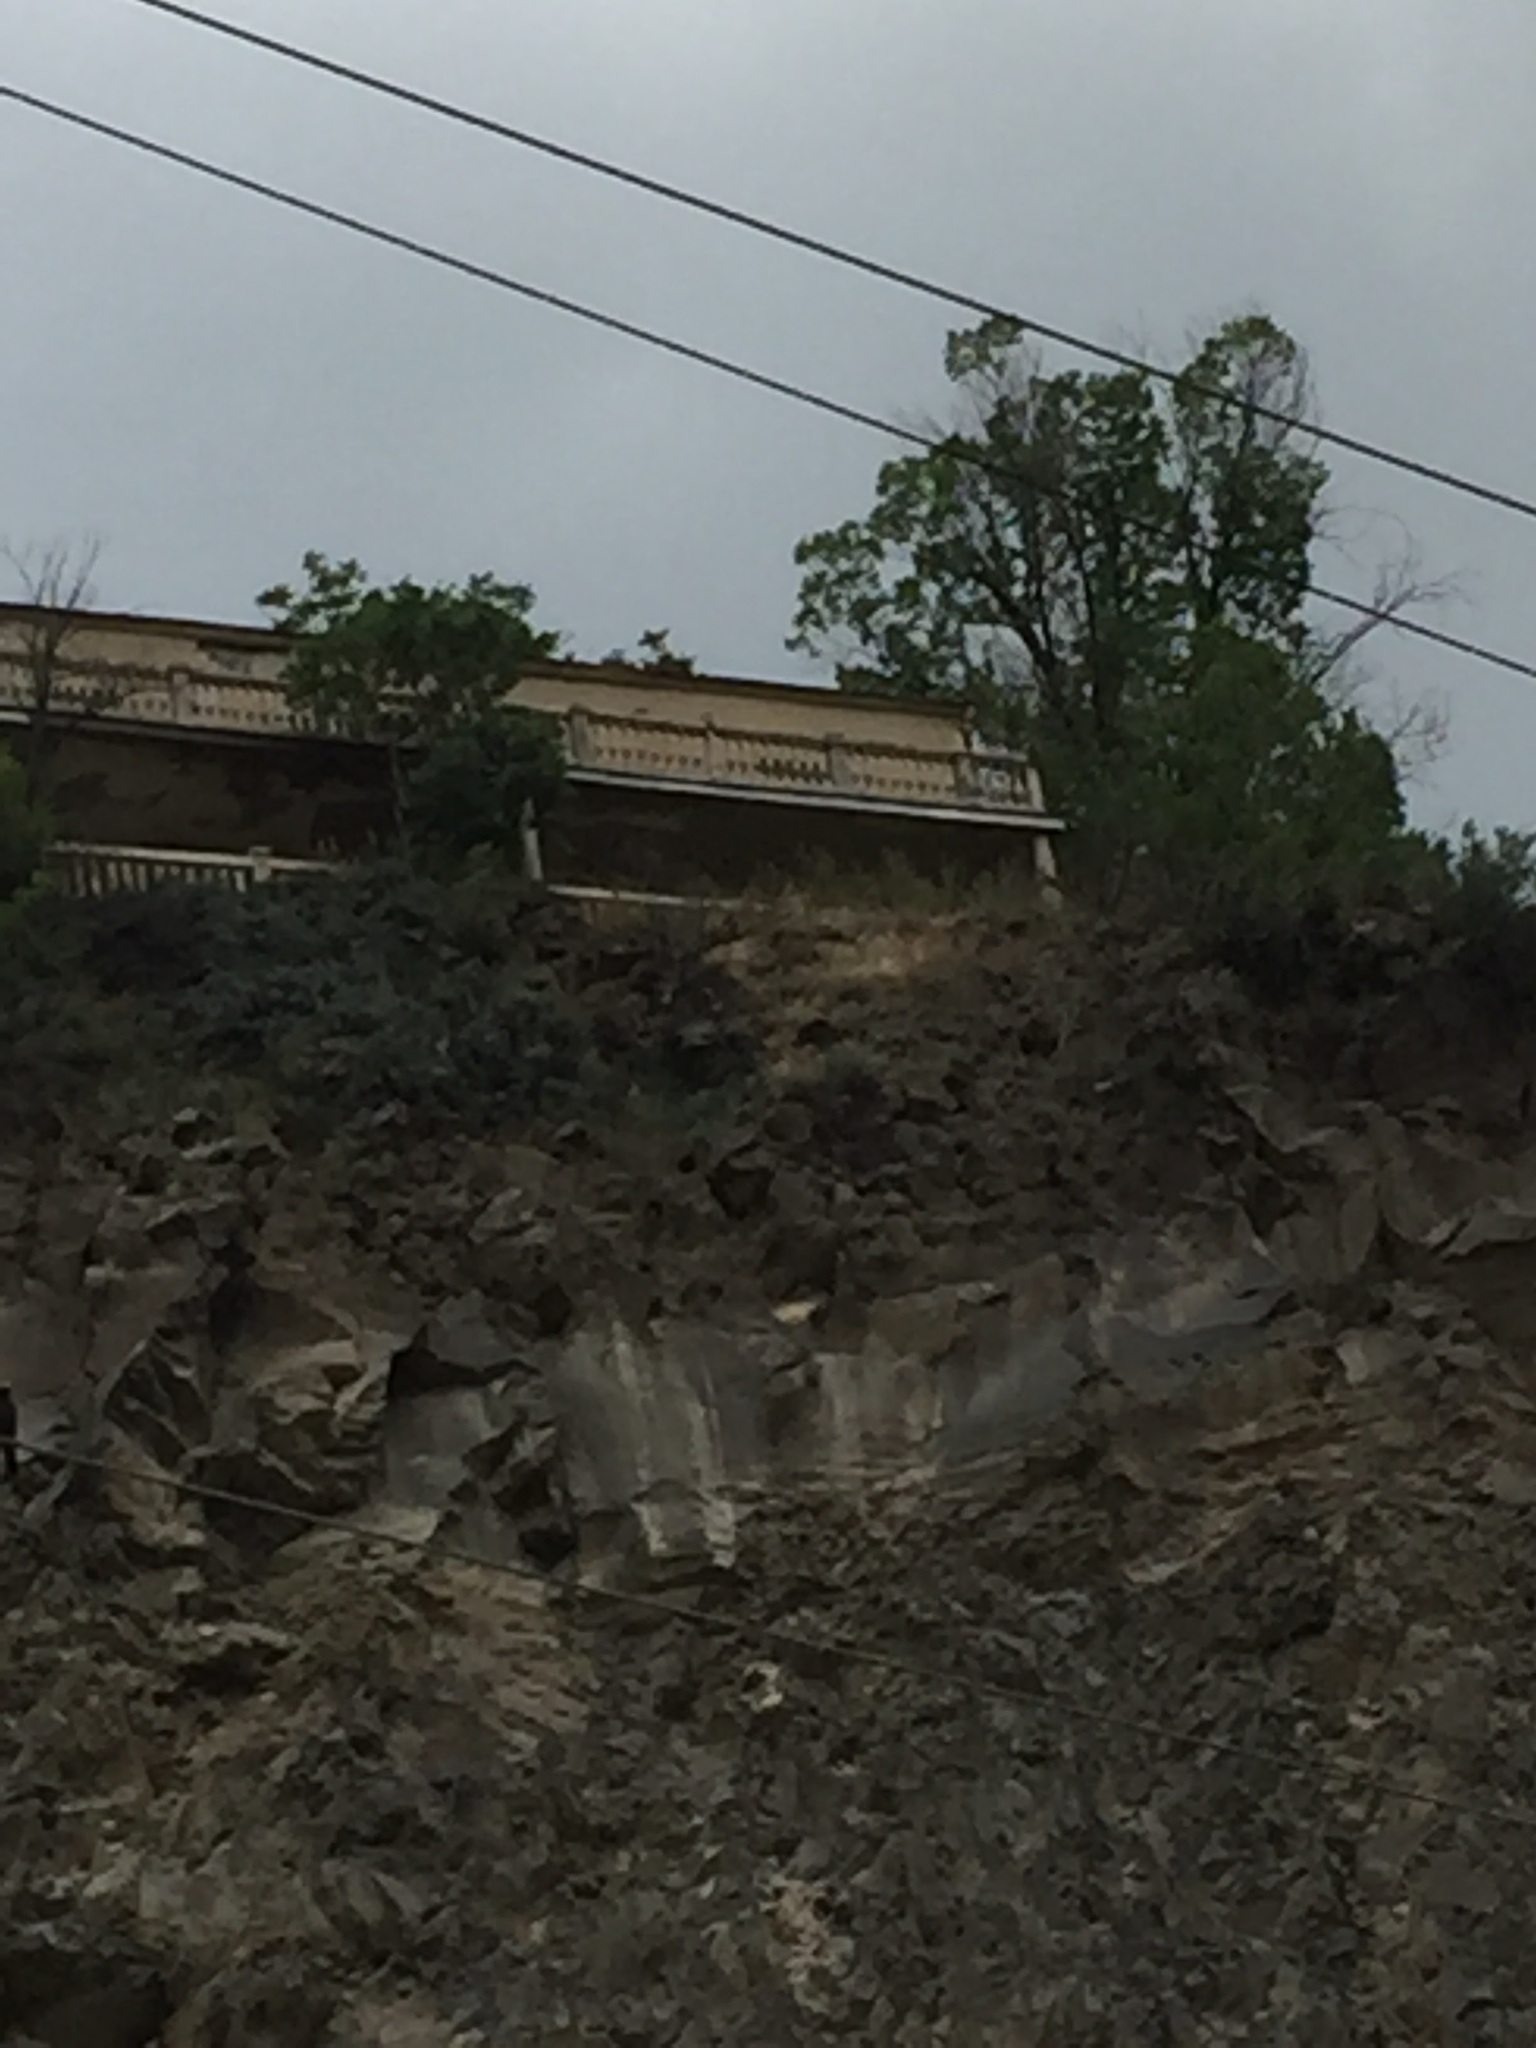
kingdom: Animalia
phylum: Chordata
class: Aves
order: Passeriformes
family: Muscicapidae
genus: Monticola
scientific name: Monticola solitarius
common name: Blue rock thrush
